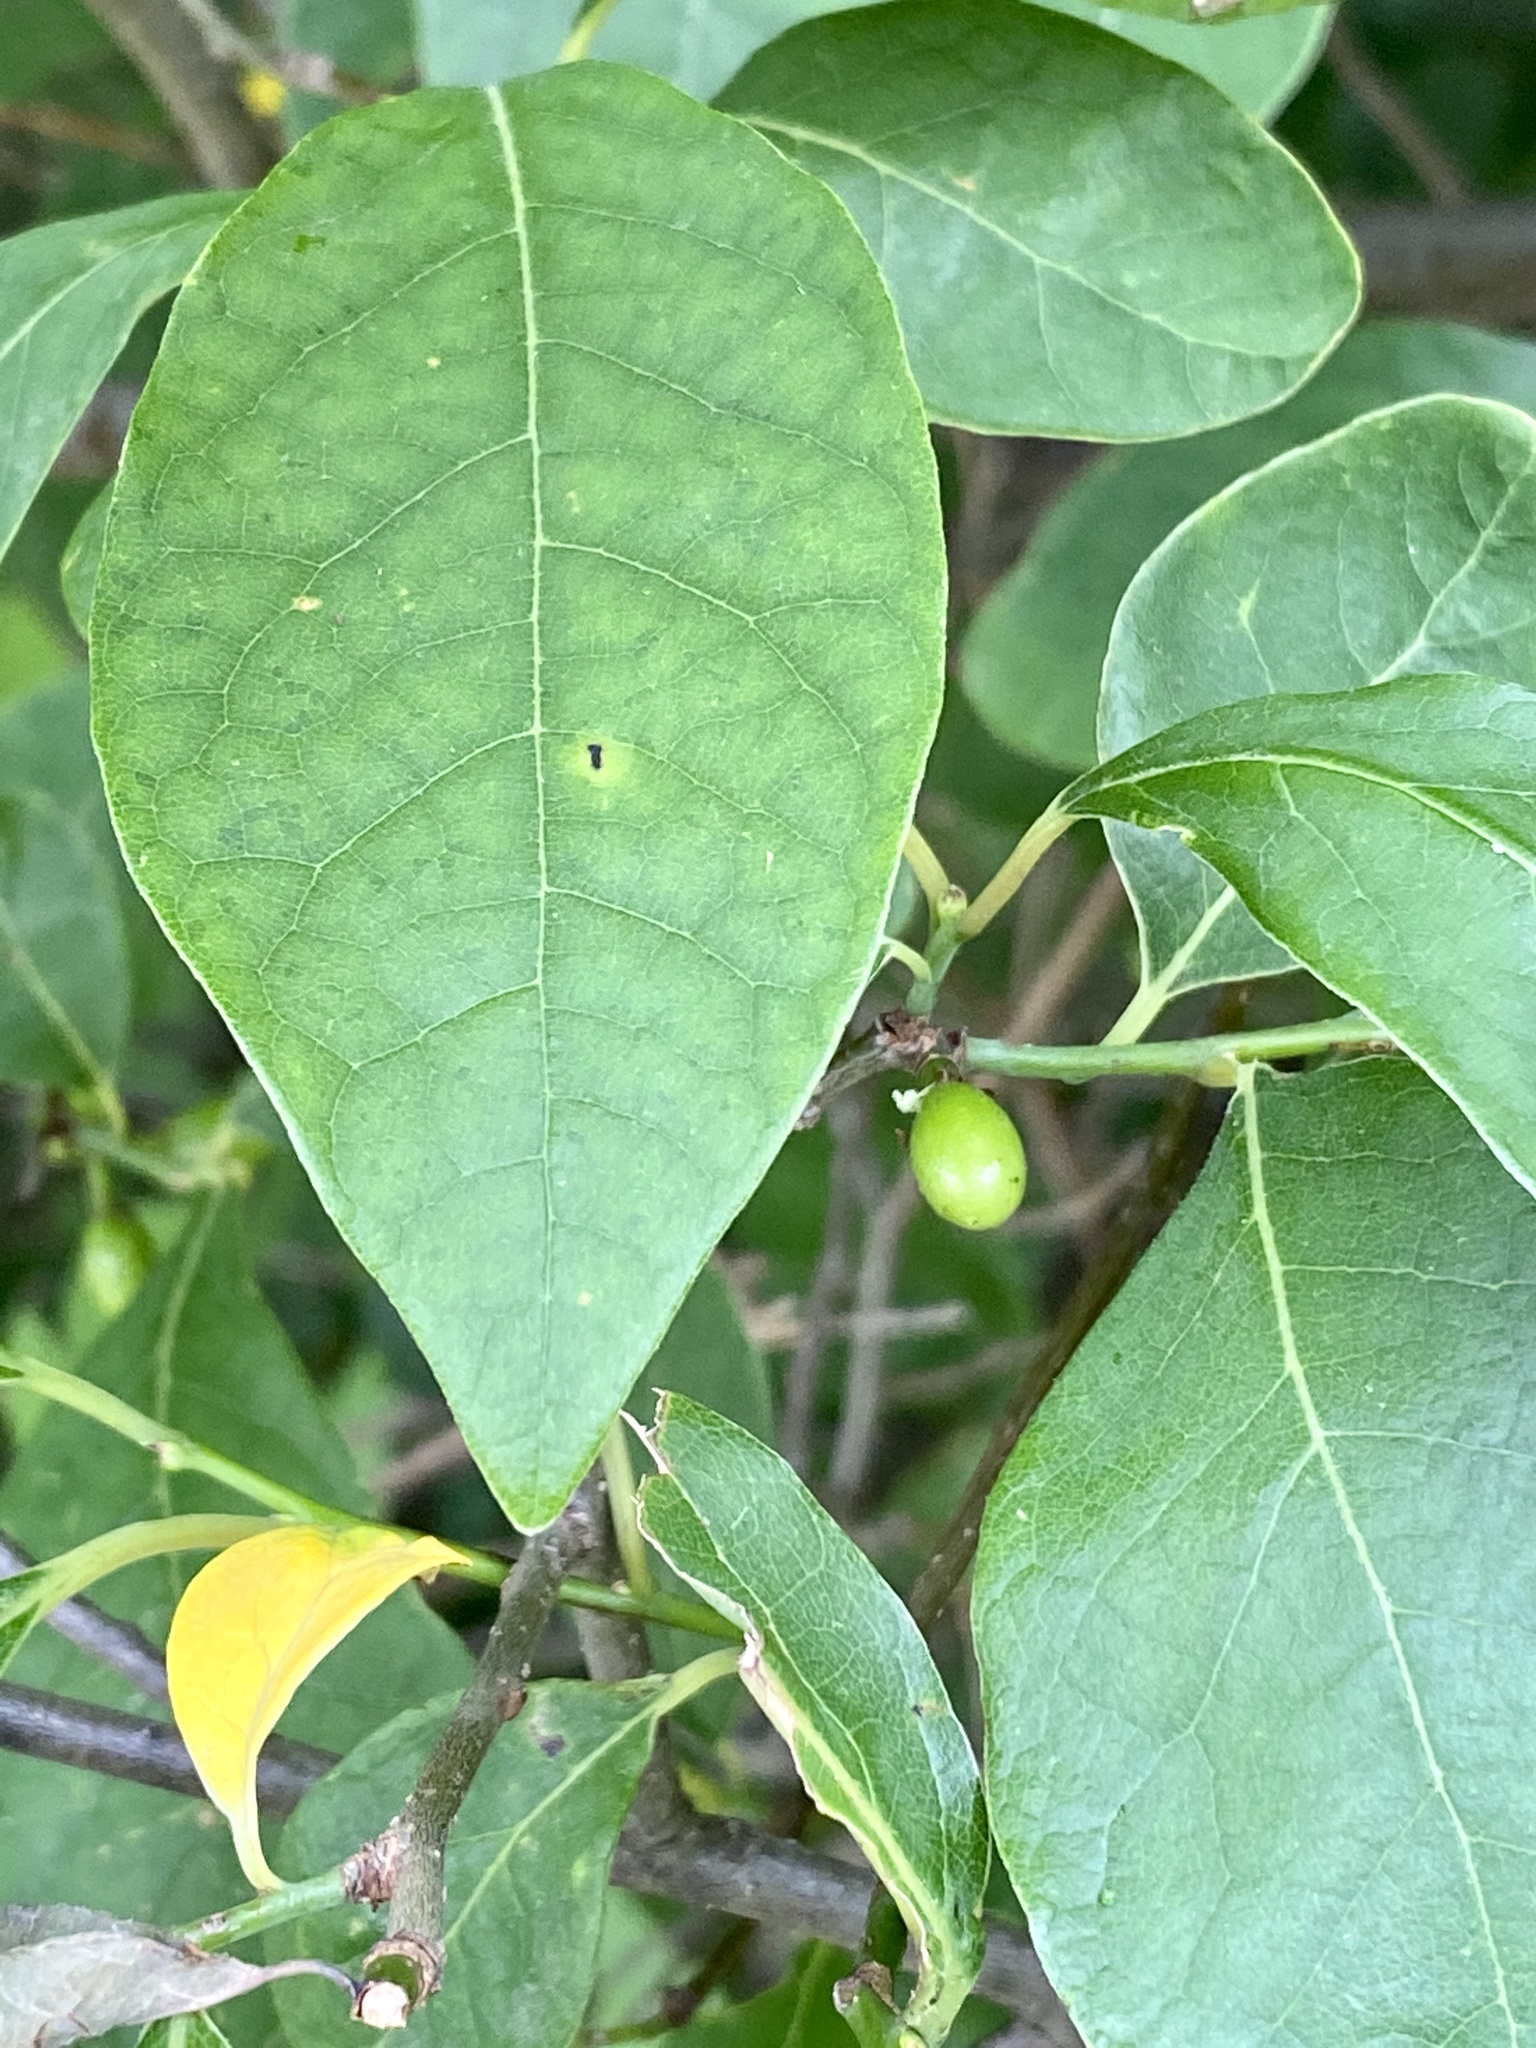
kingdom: Plantae
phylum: Tracheophyta
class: Magnoliopsida
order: Laurales
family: Lauraceae
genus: Lindera
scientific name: Lindera benzoin
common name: Spicebush
